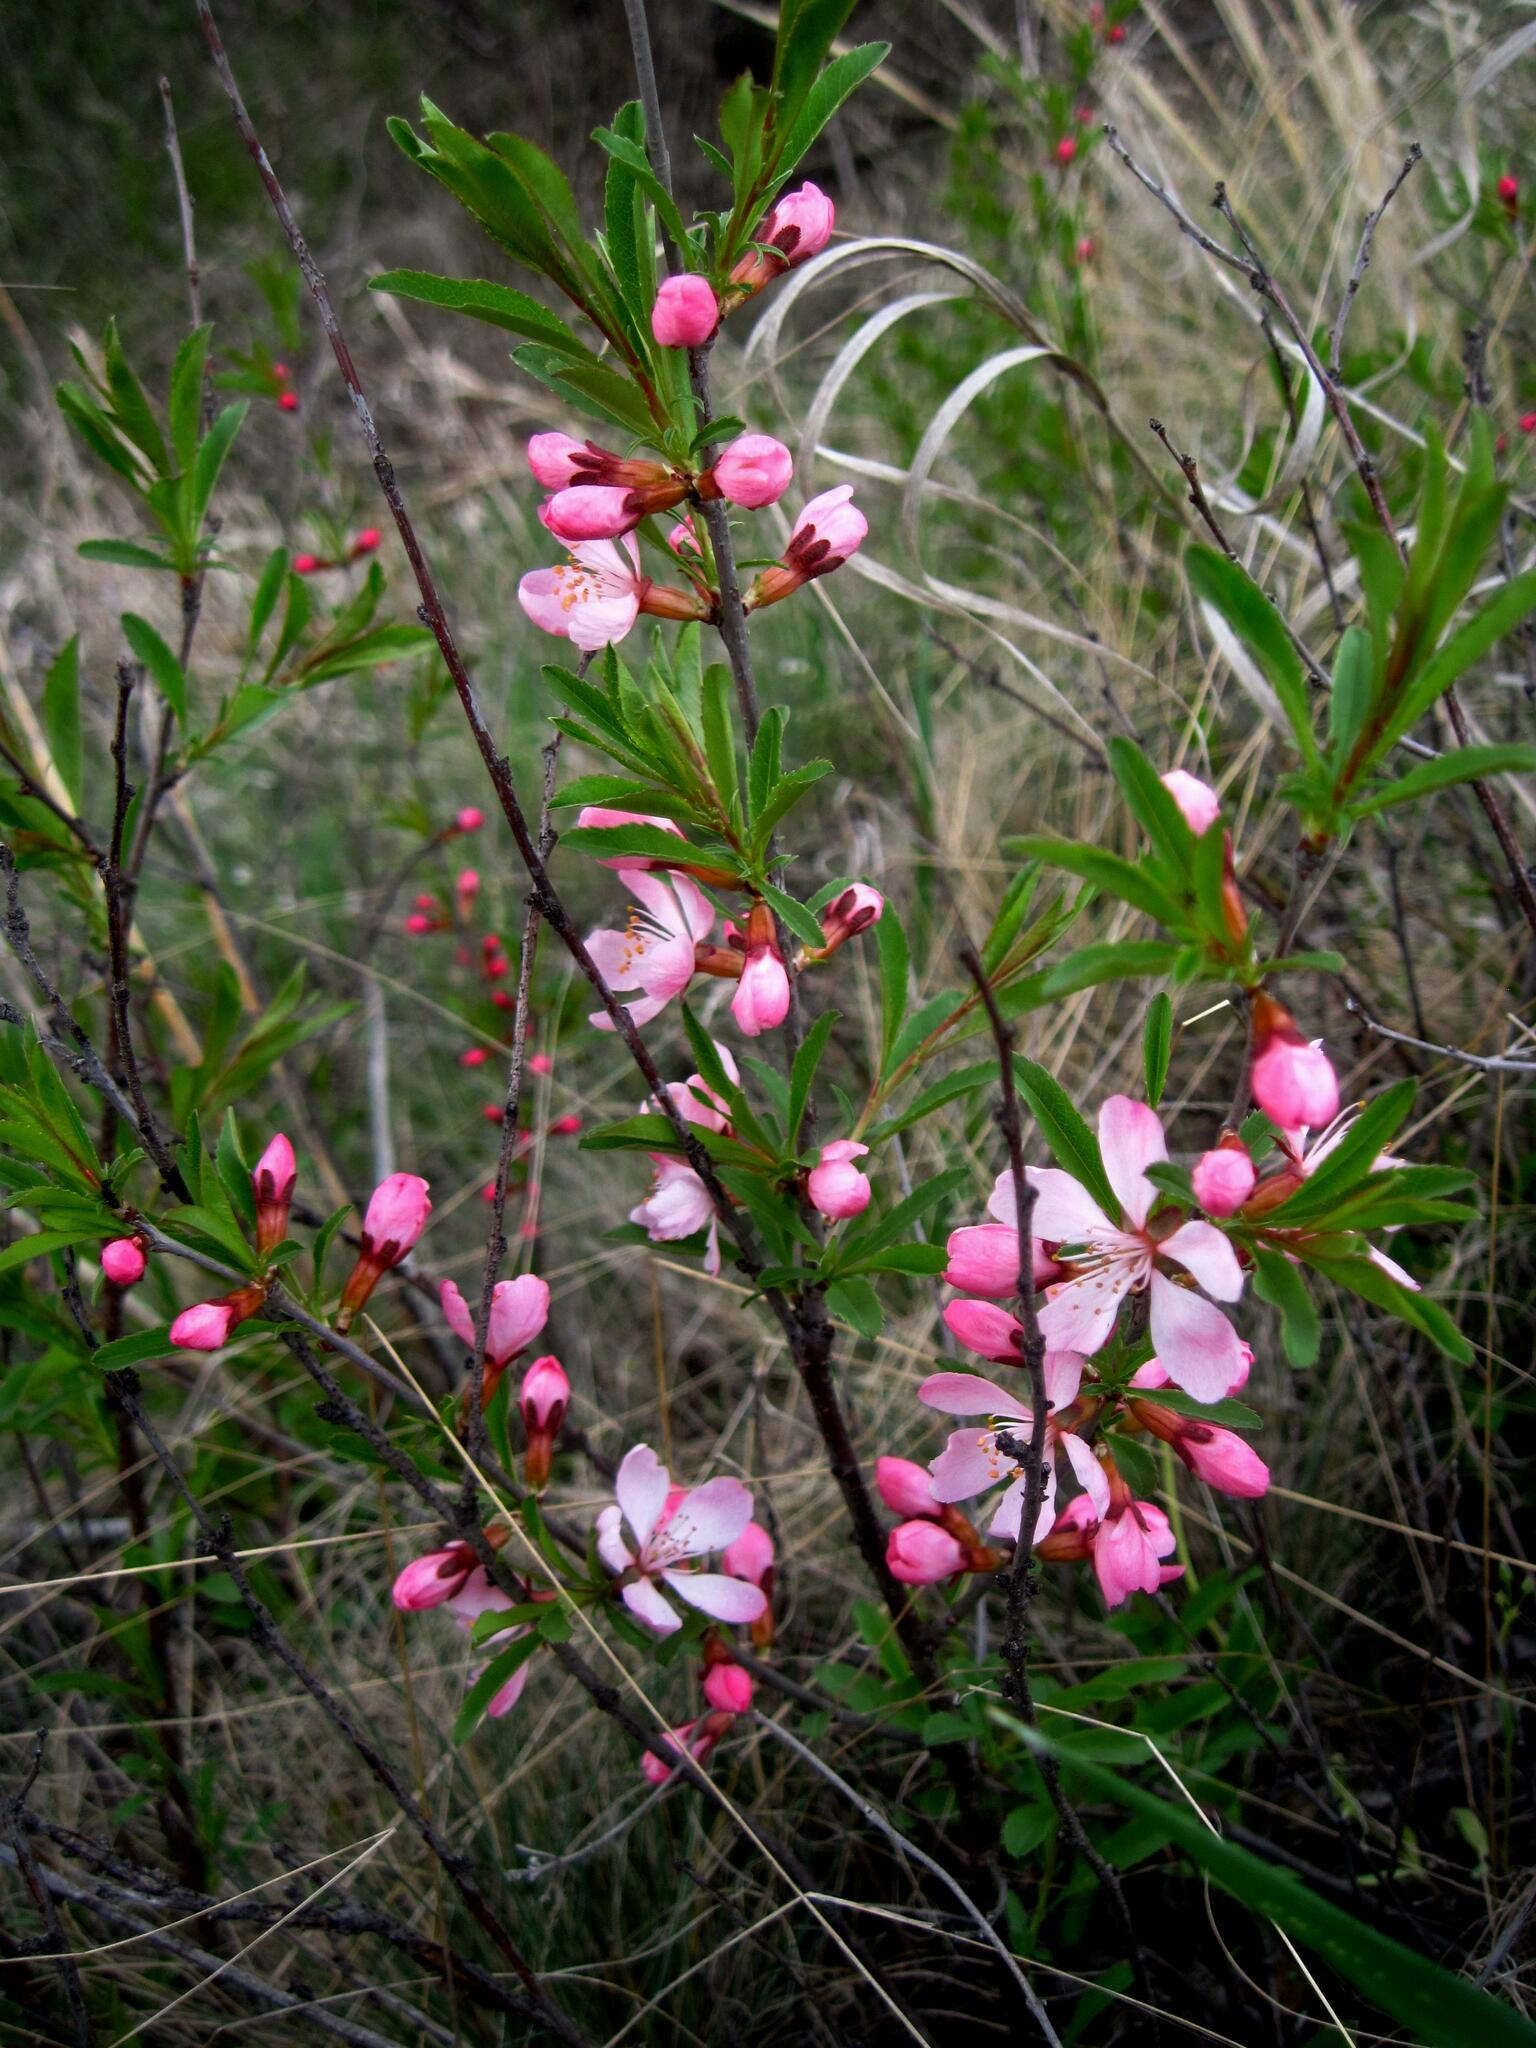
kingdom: Plantae
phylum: Tracheophyta
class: Magnoliopsida
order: Rosales
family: Rosaceae
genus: Prunus
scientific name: Prunus tenella
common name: Dwarf russian almond
